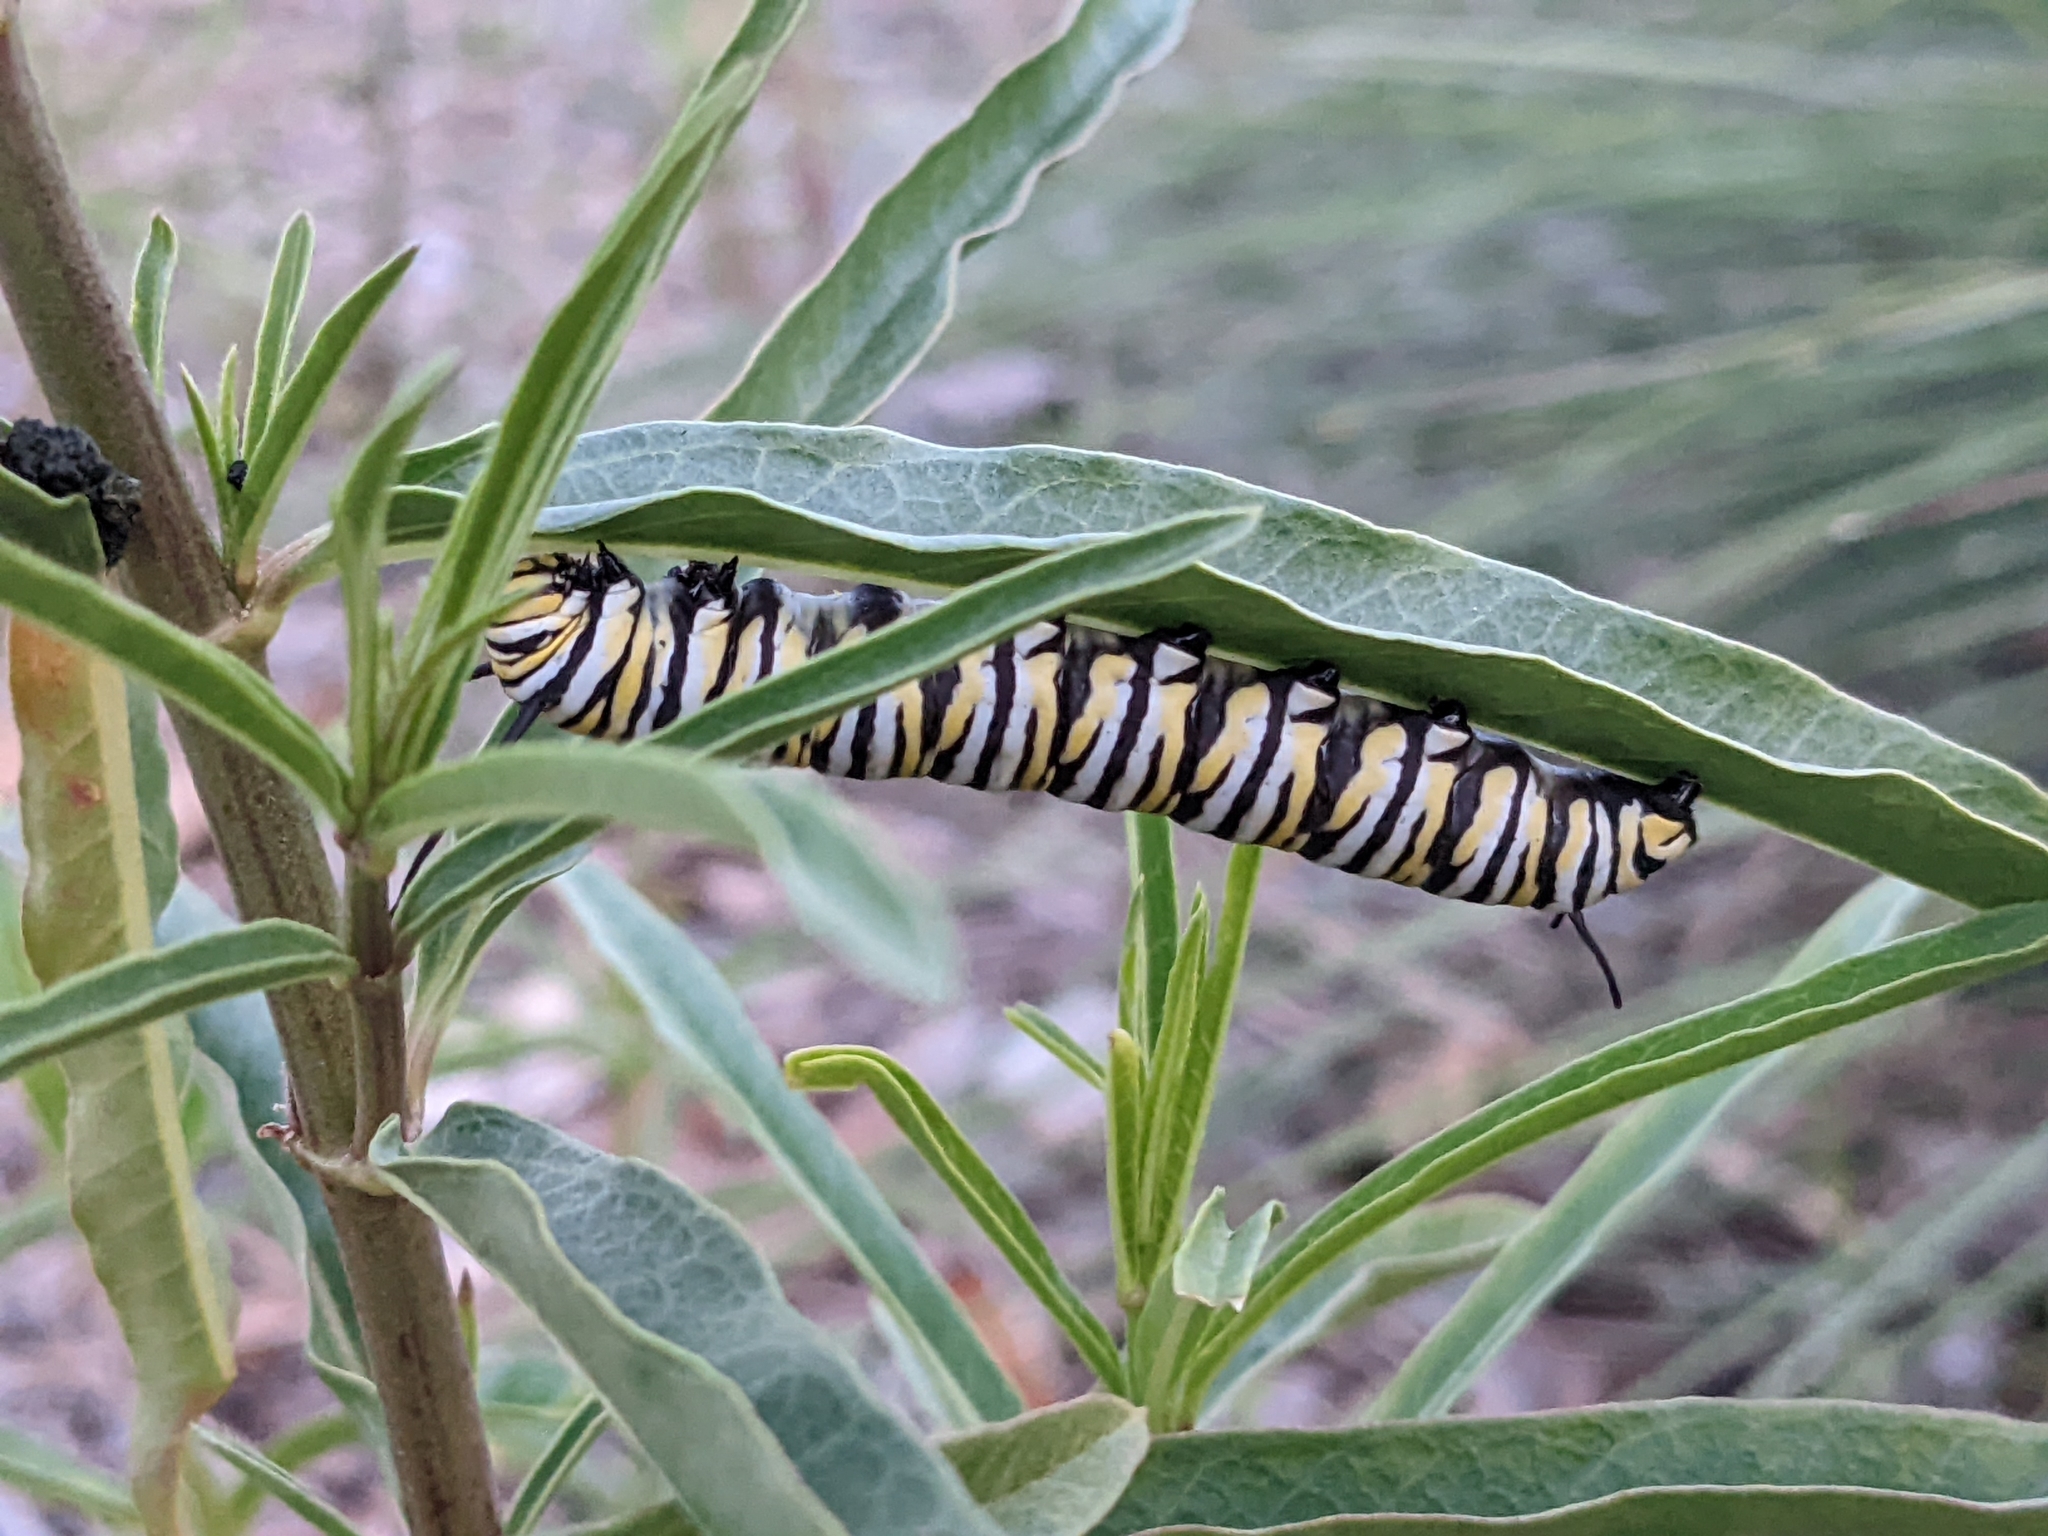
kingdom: Animalia
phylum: Arthropoda
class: Insecta
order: Lepidoptera
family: Nymphalidae
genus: Danaus
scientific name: Danaus plexippus
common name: Monarch
